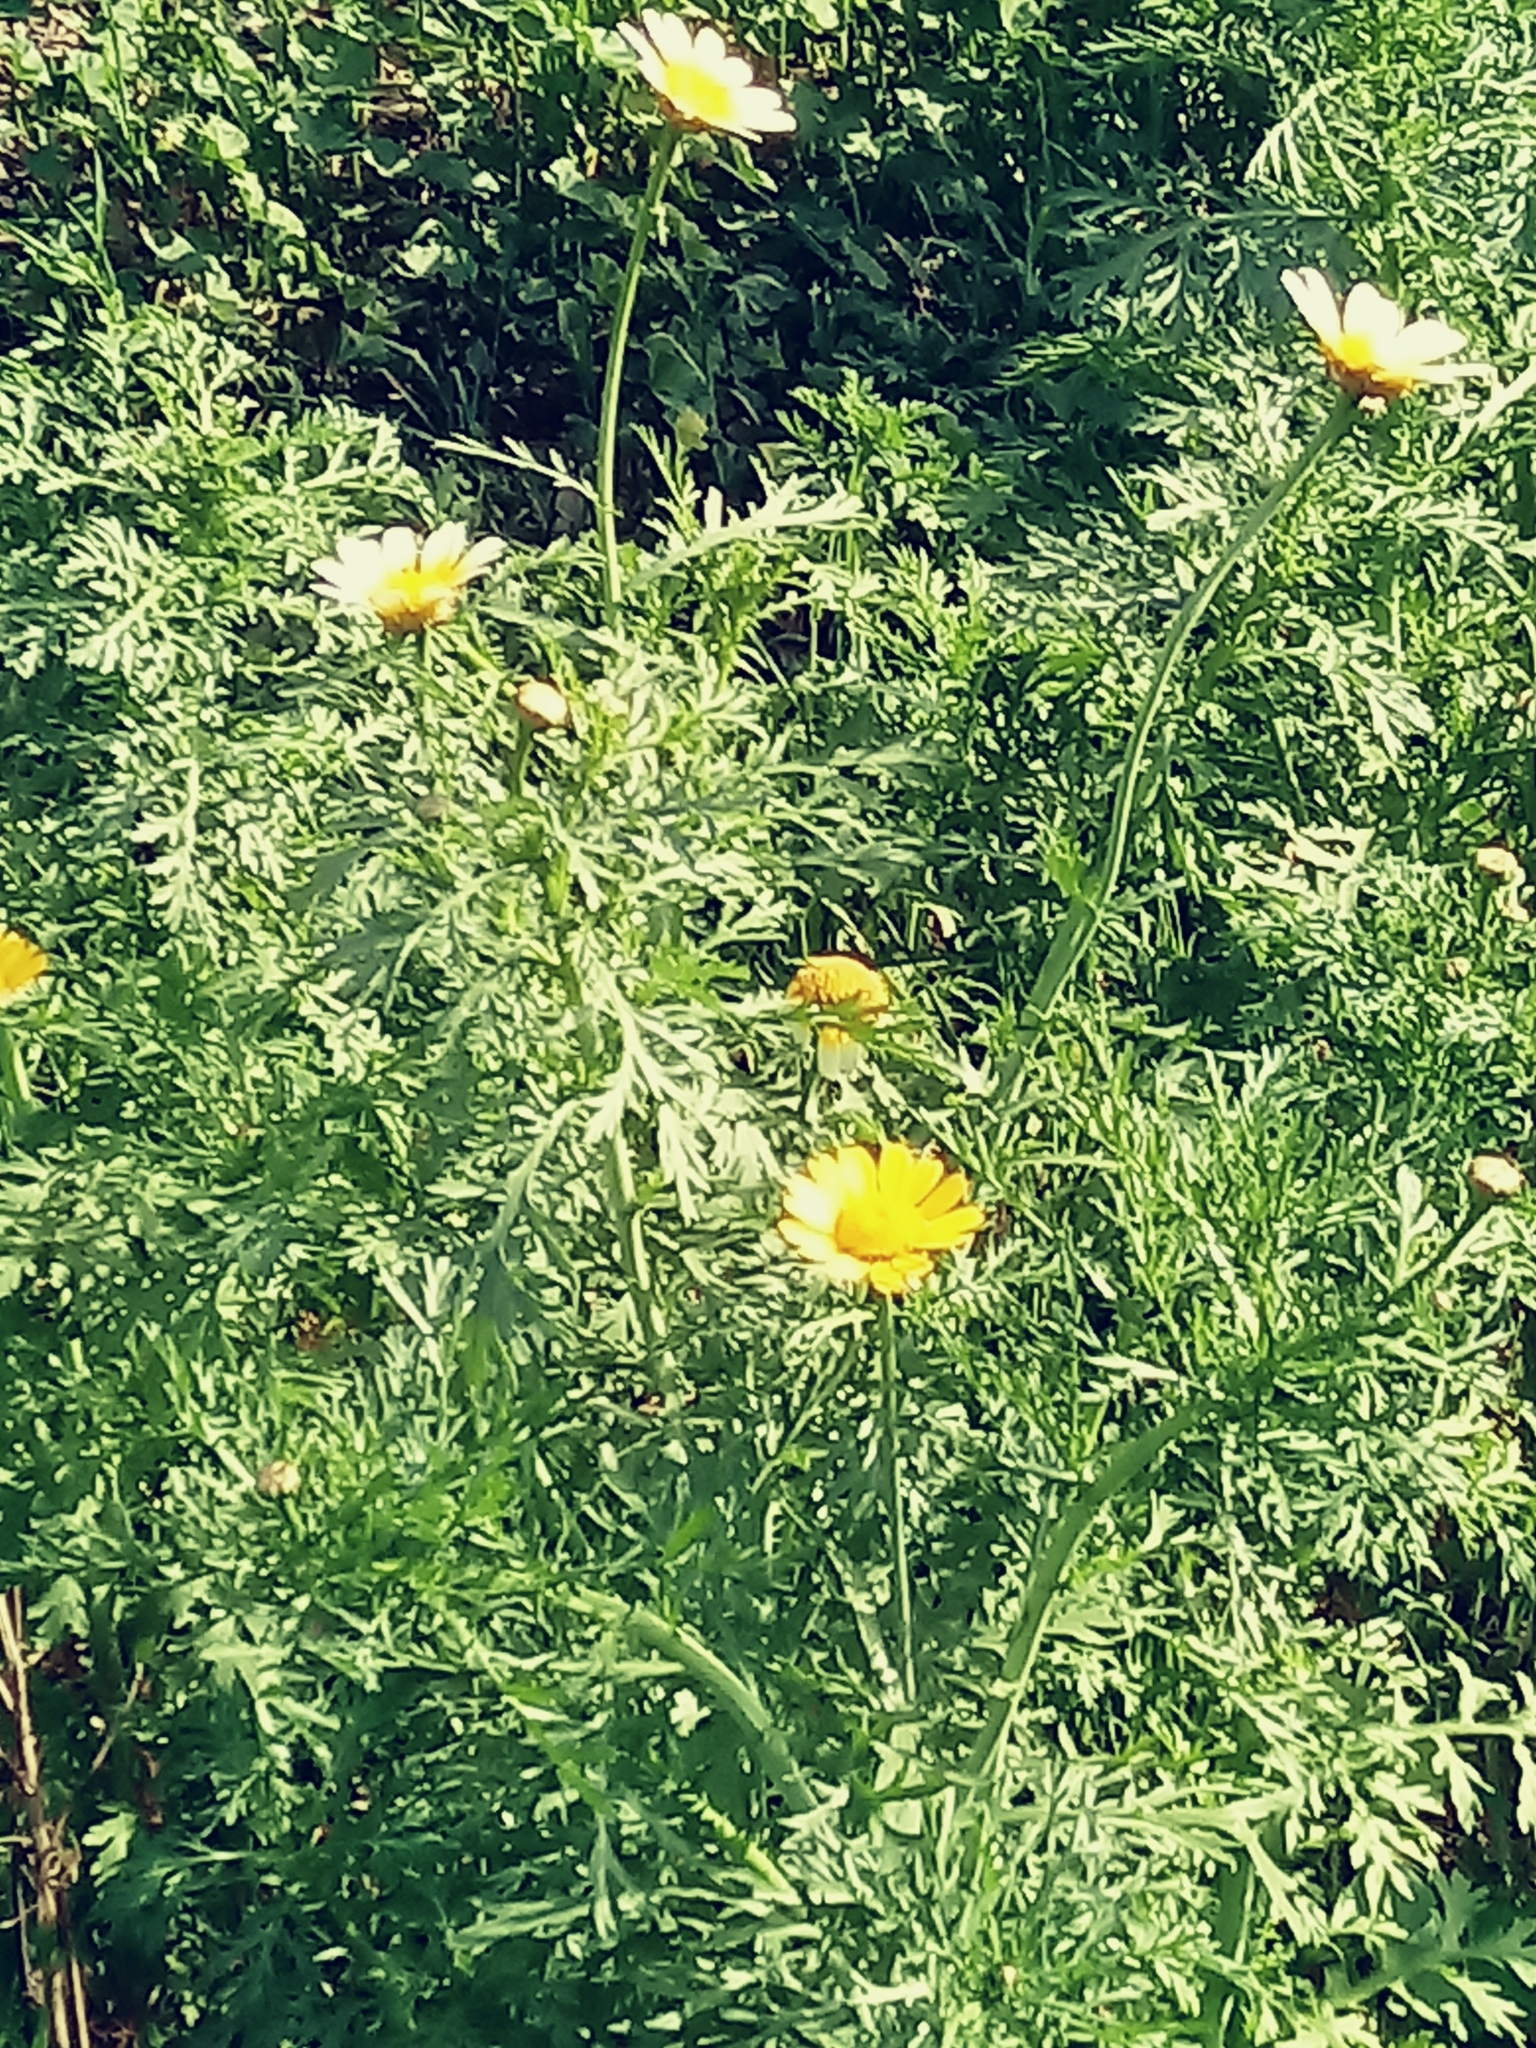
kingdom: Plantae
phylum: Tracheophyta
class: Magnoliopsida
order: Asterales
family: Asteraceae
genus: Glebionis
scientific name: Glebionis coronaria
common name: Crowndaisy
